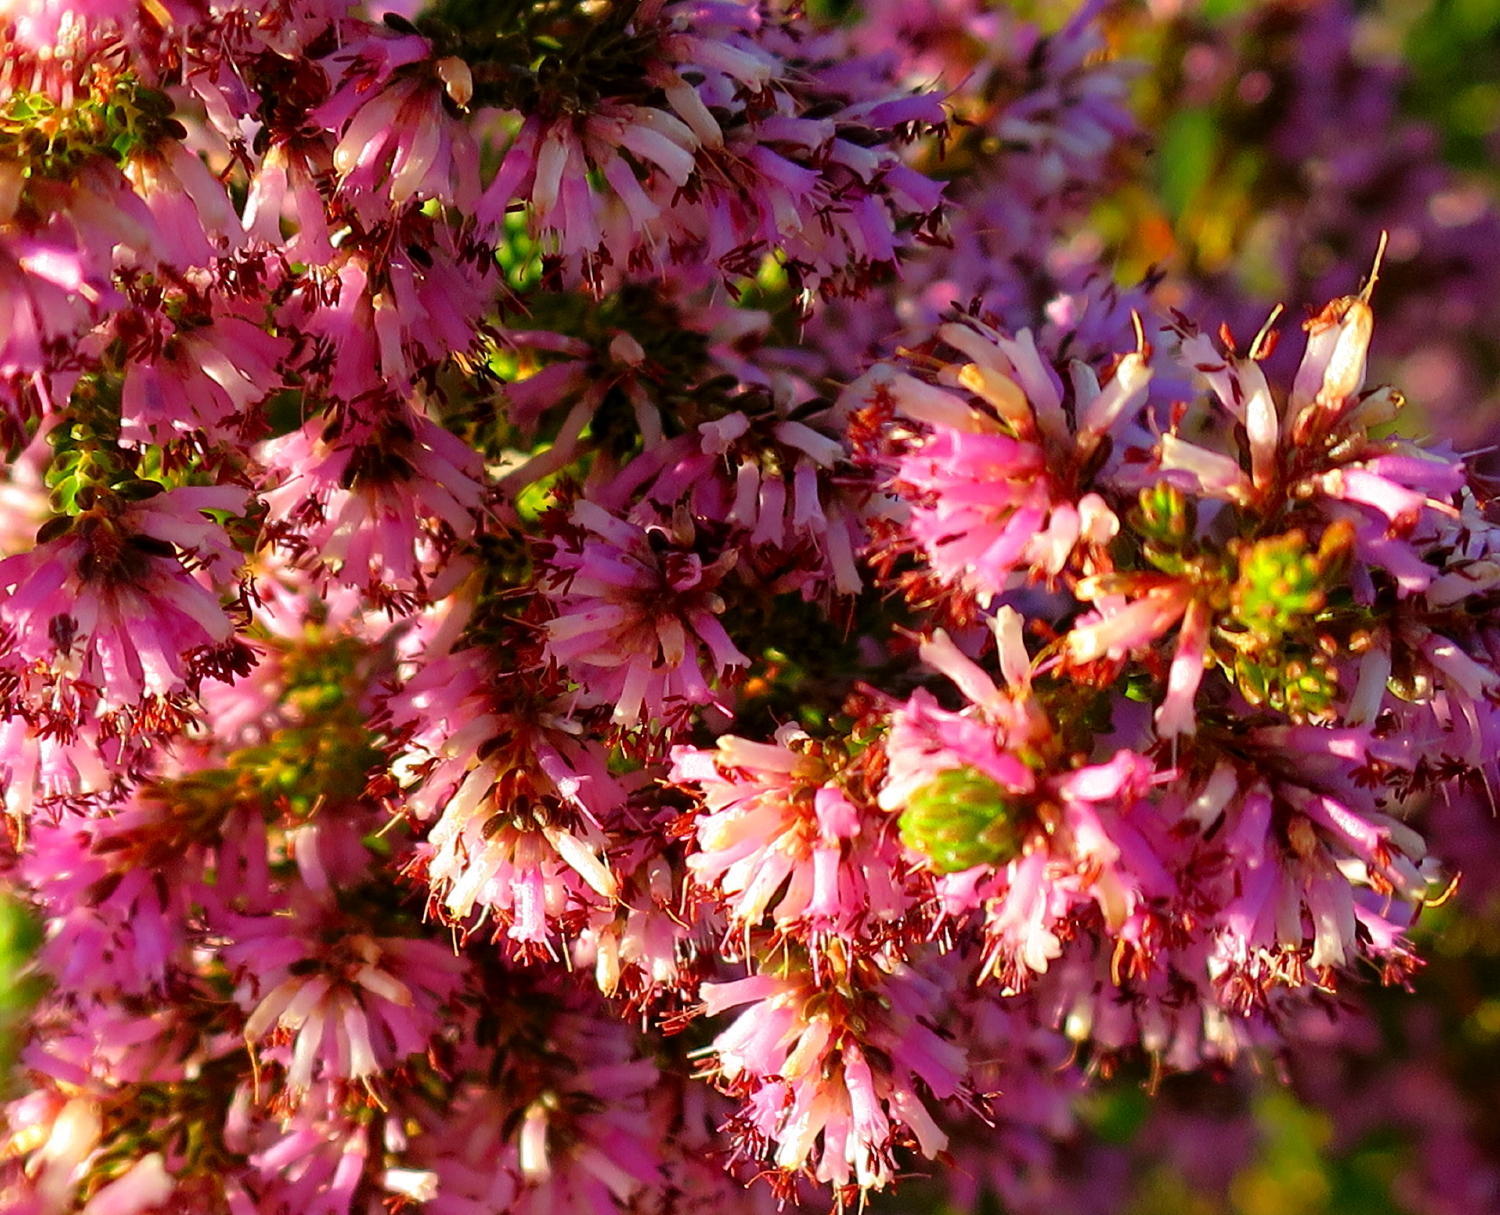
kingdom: Plantae
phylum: Tracheophyta
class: Magnoliopsida
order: Ericales
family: Ericaceae
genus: Erica
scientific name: Erica uberiflora
